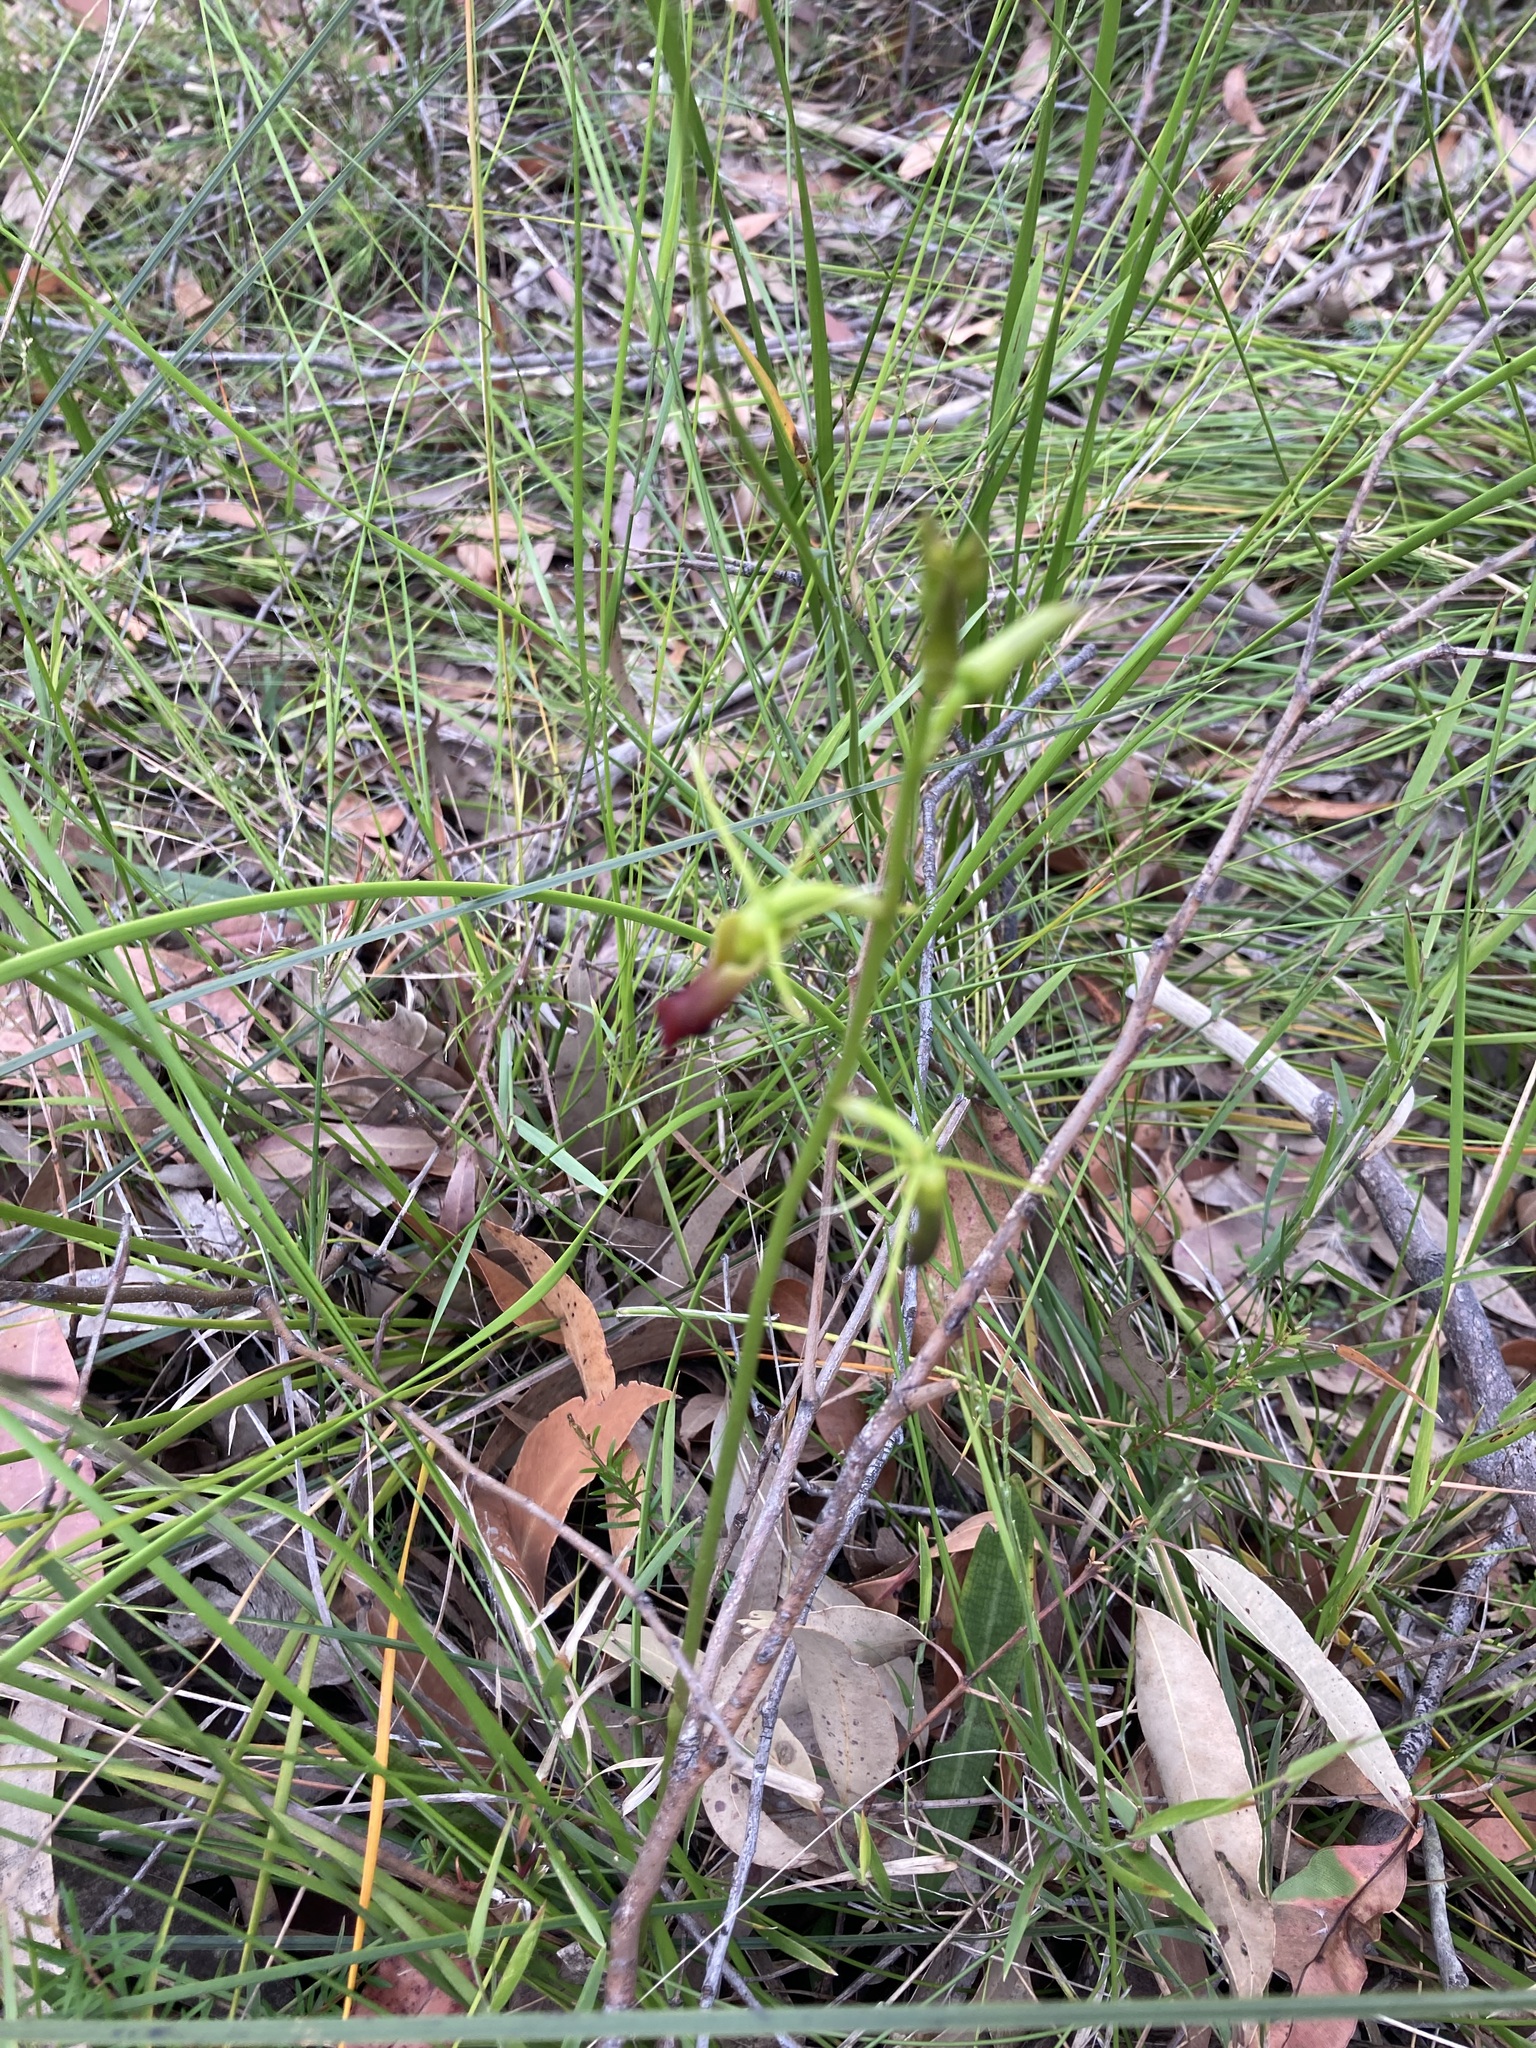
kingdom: Plantae
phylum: Tracheophyta
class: Liliopsida
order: Asparagales
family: Orchidaceae
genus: Cryptostylis
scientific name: Cryptostylis subulata
